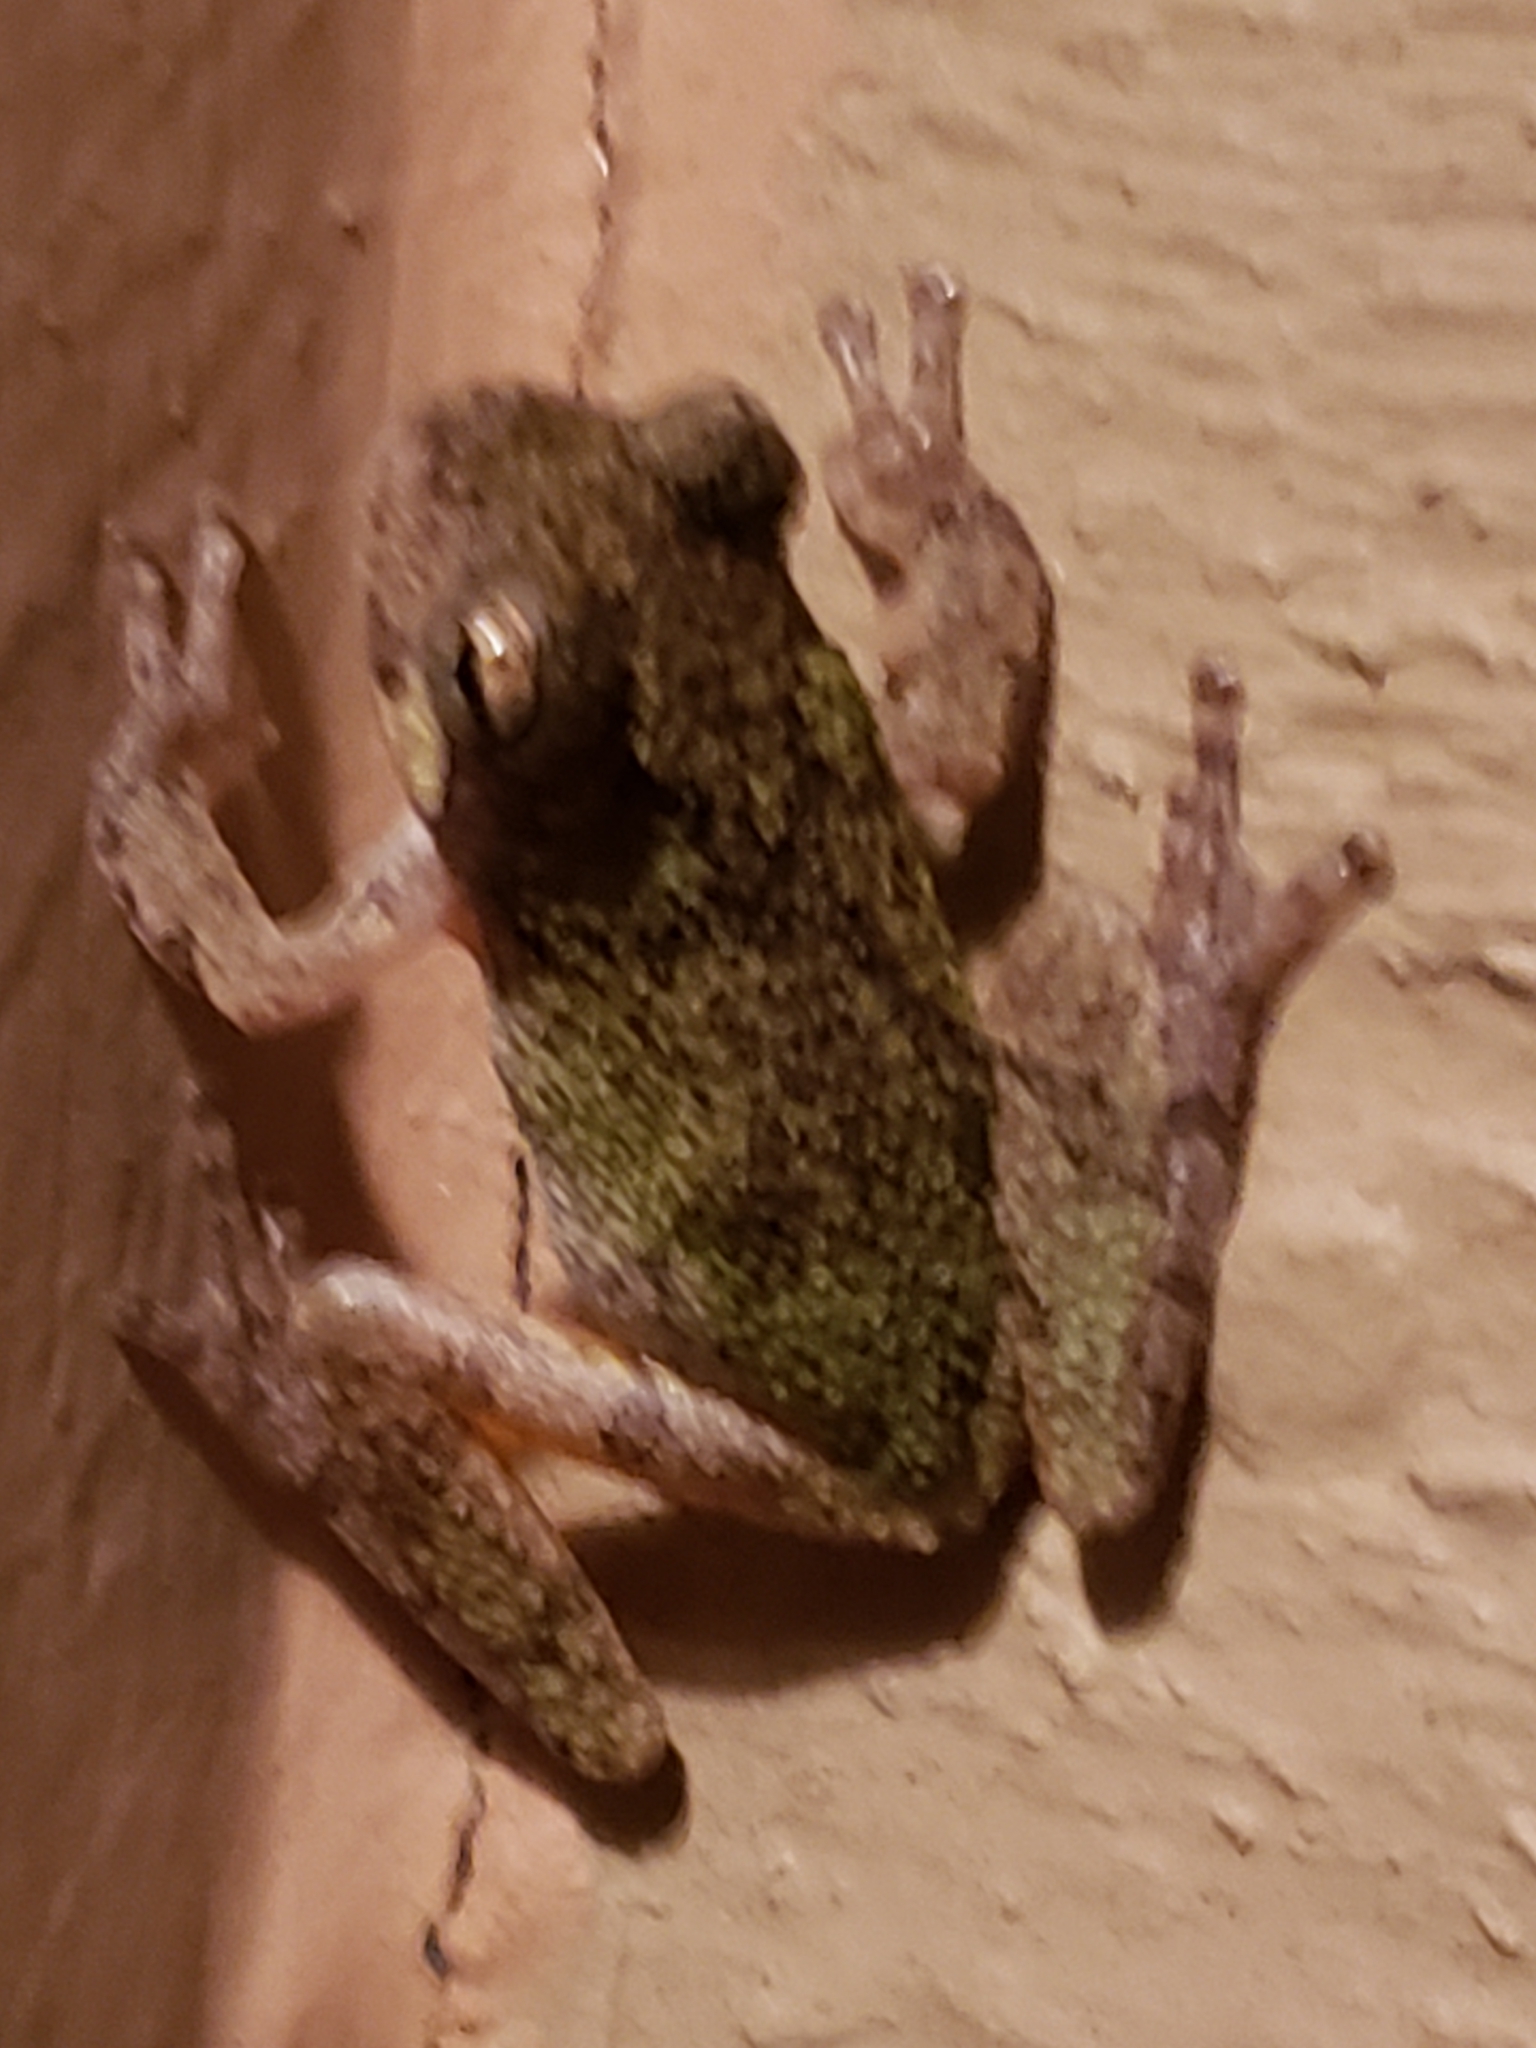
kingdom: Animalia
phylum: Chordata
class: Amphibia
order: Anura
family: Hylidae
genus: Hyla
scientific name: Hyla
